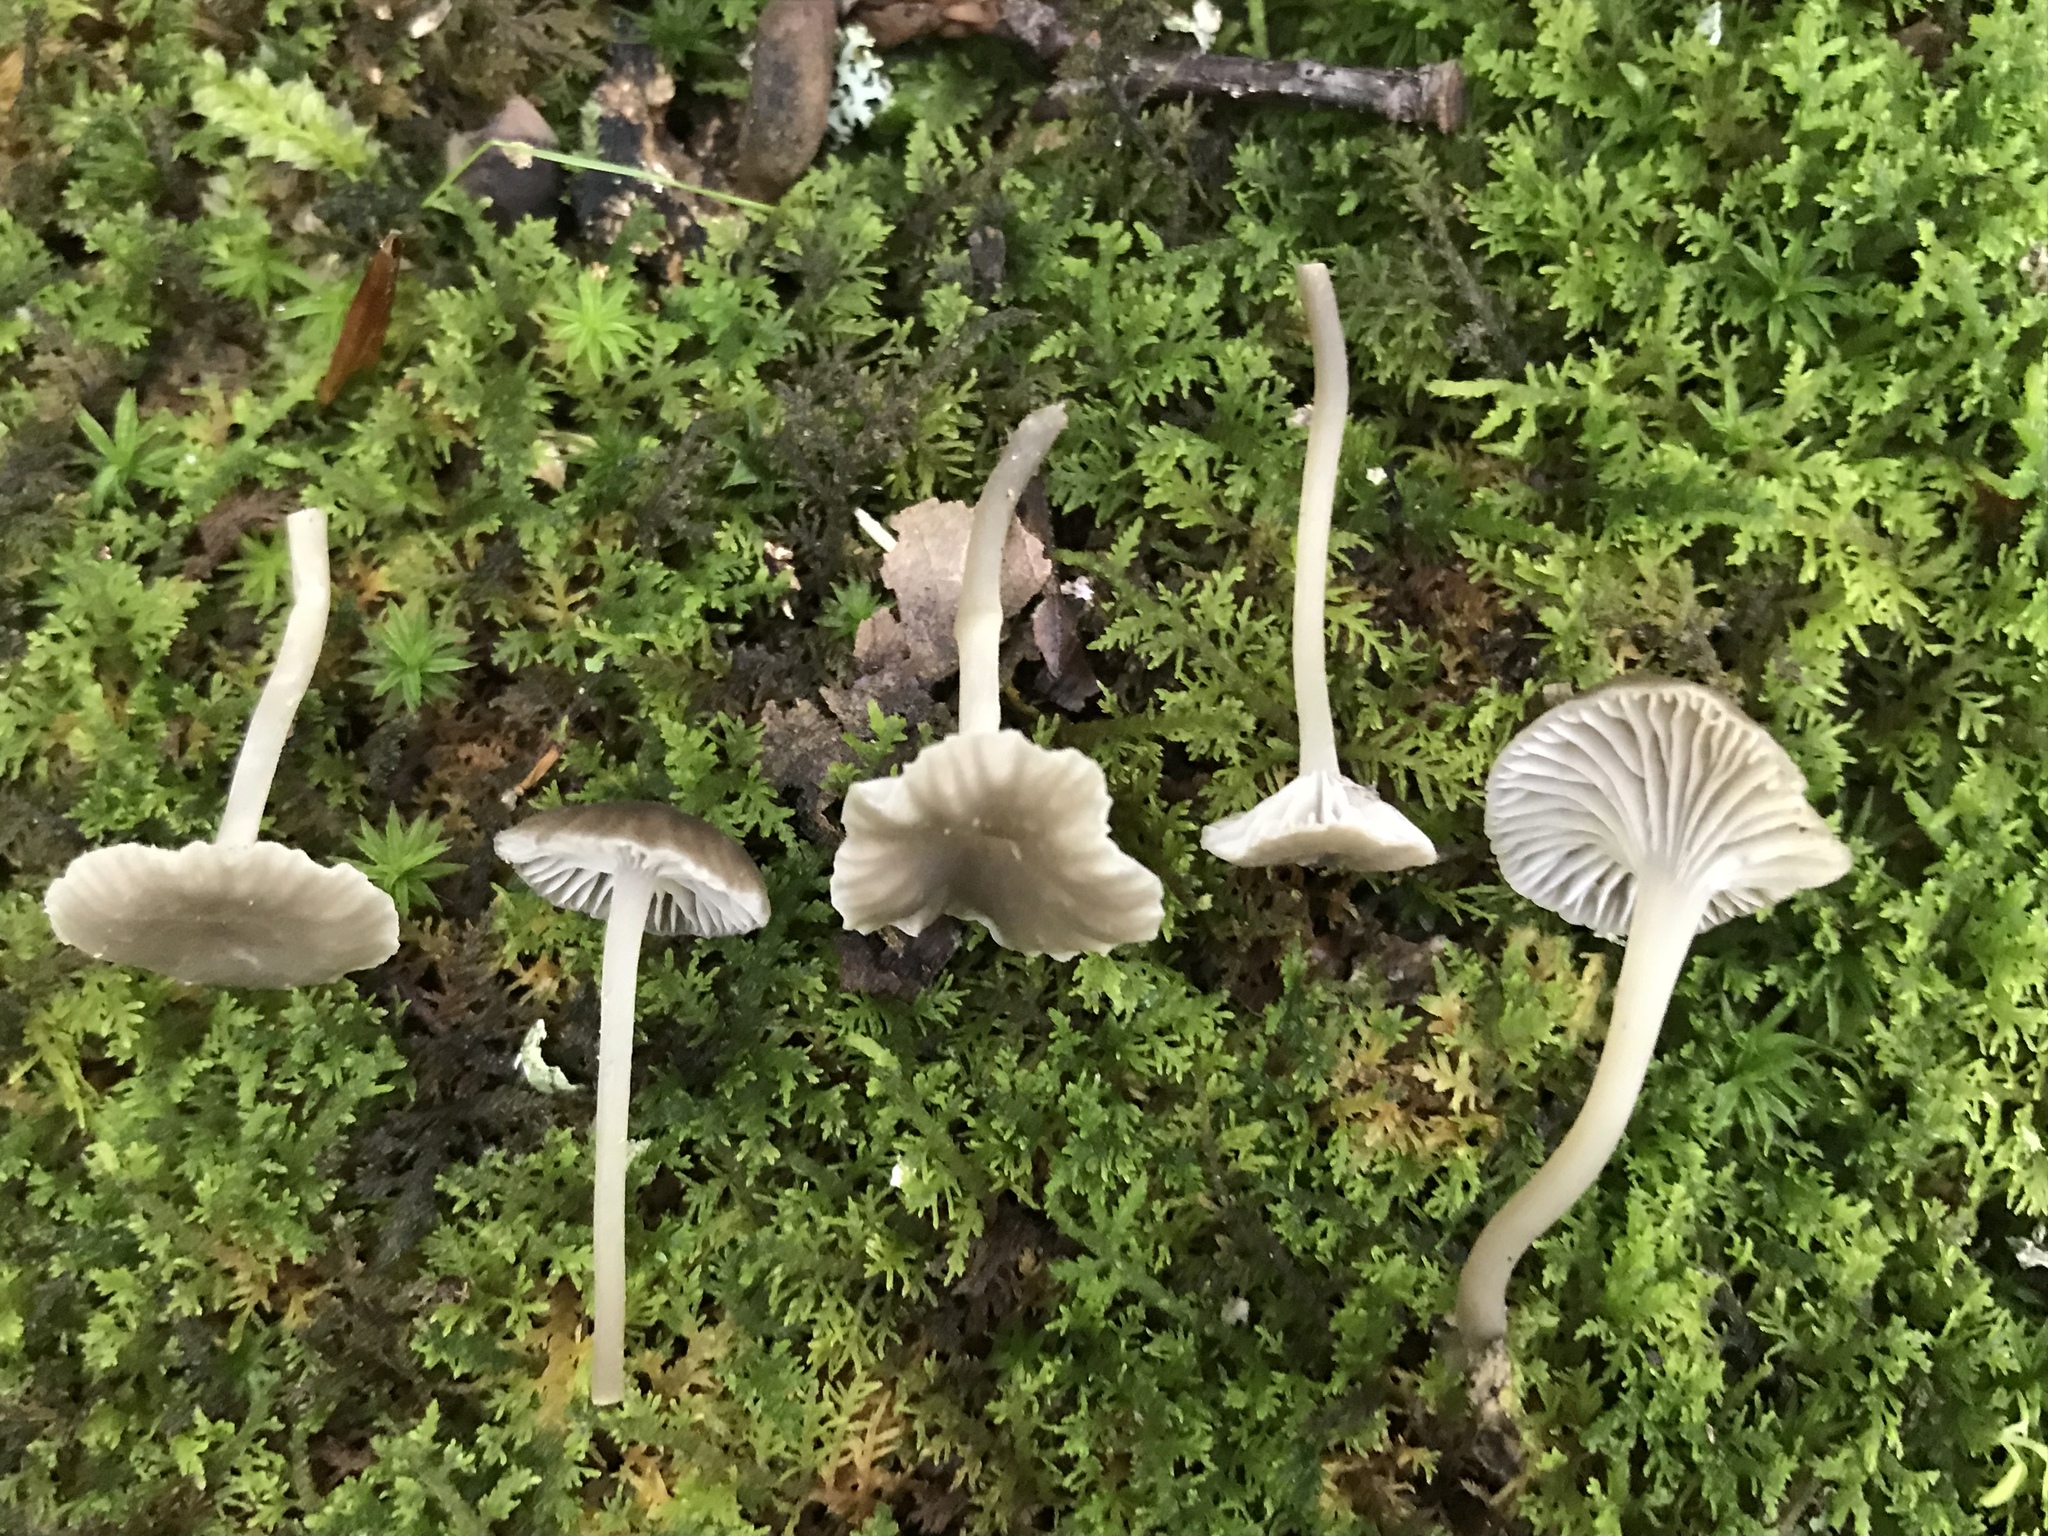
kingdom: Fungi
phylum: Basidiomycota
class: Agaricomycetes
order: Agaricales
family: Mycenaceae
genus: Hydropus
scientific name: Hydropus praedecurrens
